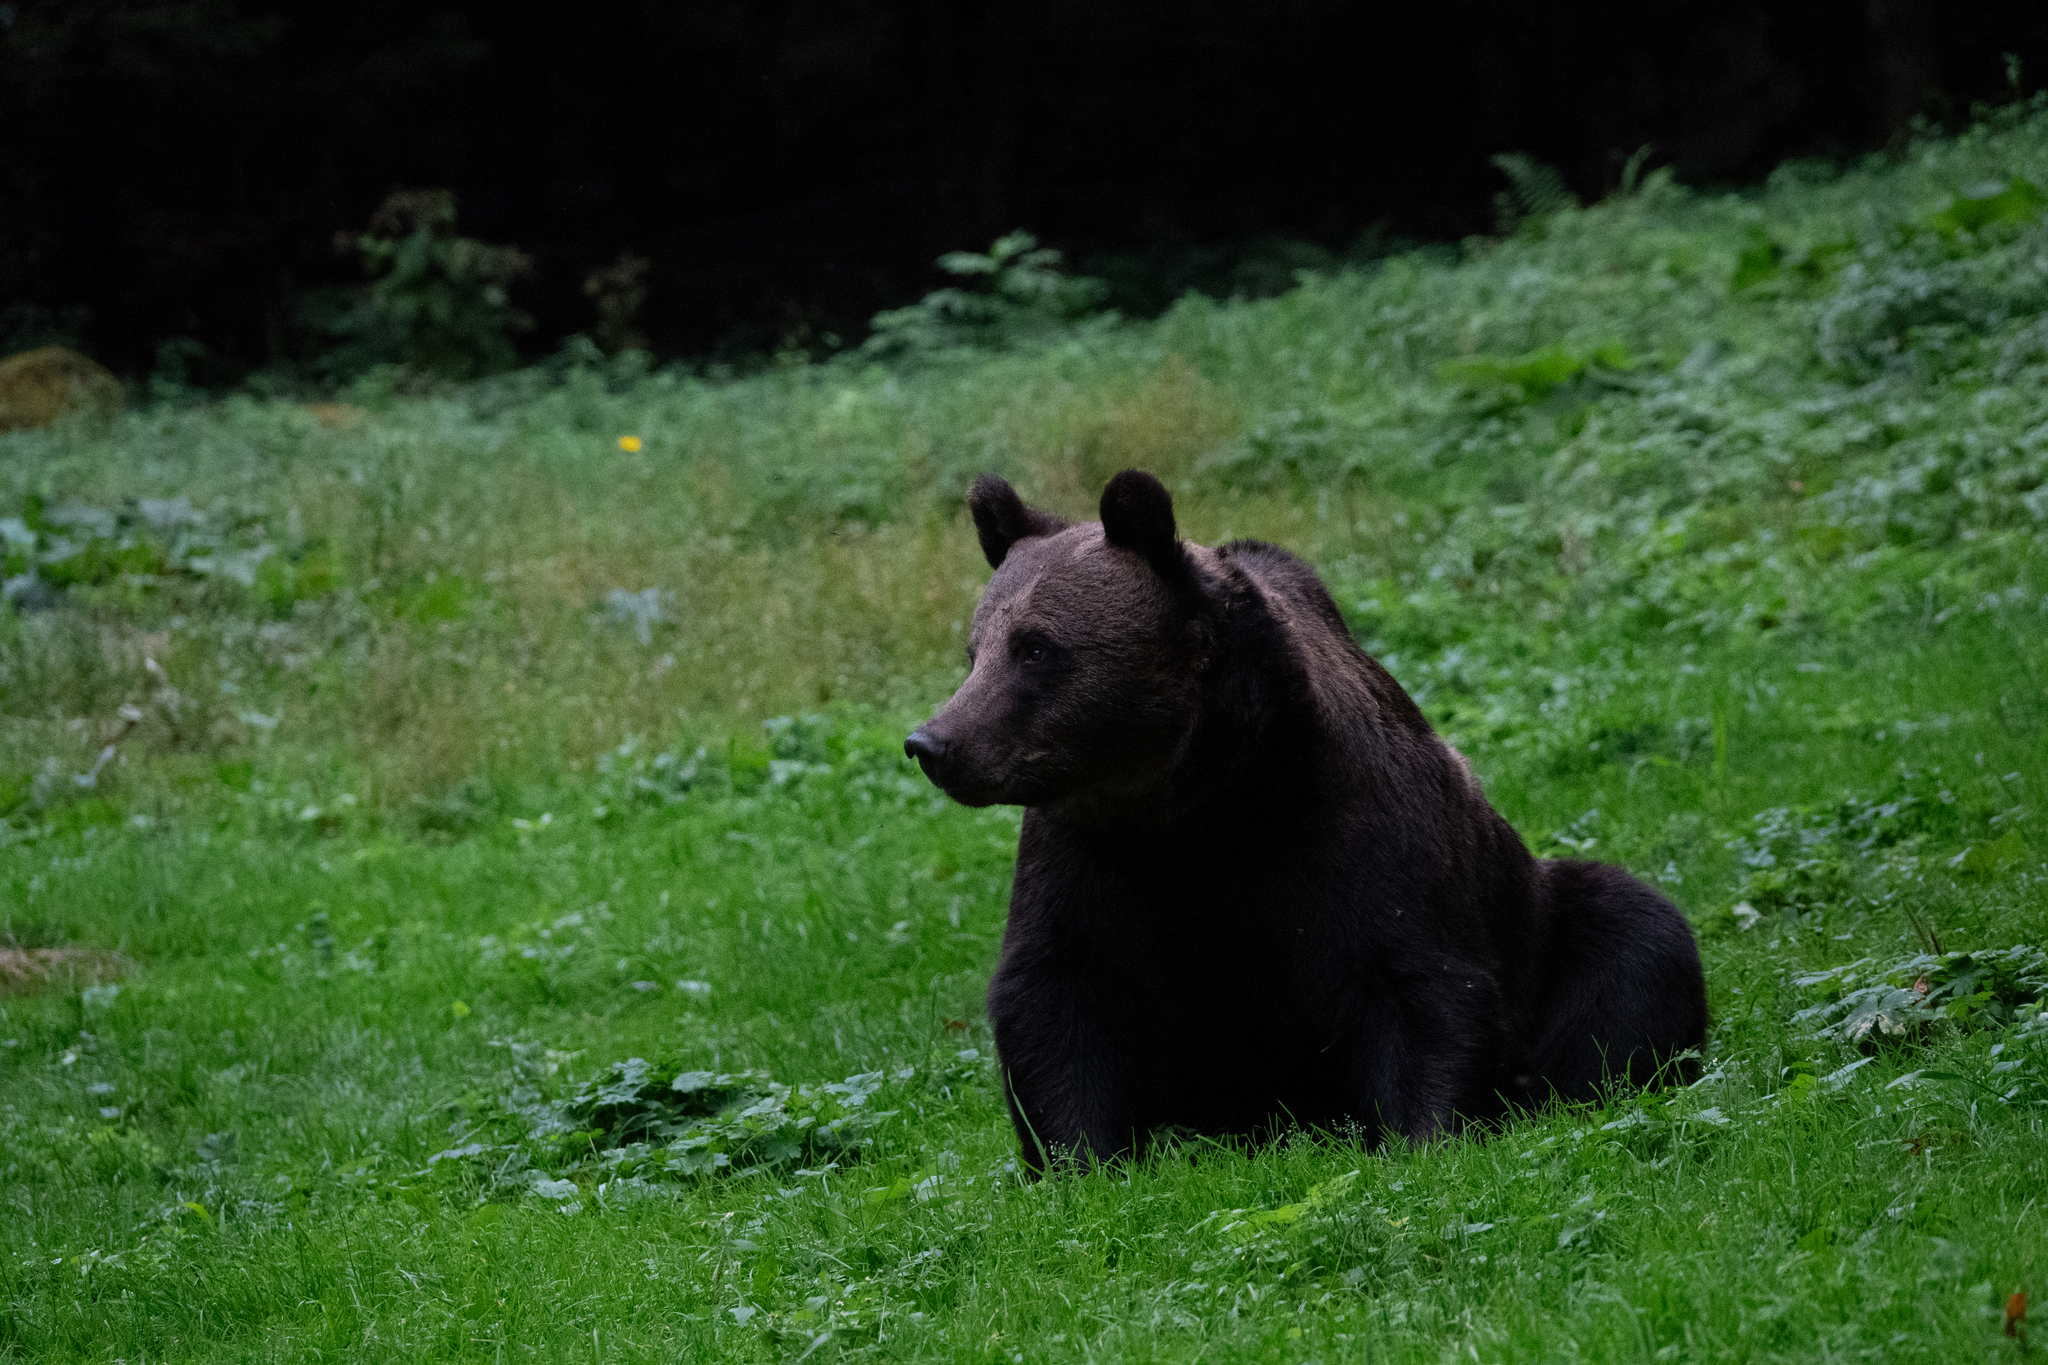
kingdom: Animalia
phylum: Chordata
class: Mammalia
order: Carnivora
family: Ursidae
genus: Ursus
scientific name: Ursus arctos
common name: Brown bear
